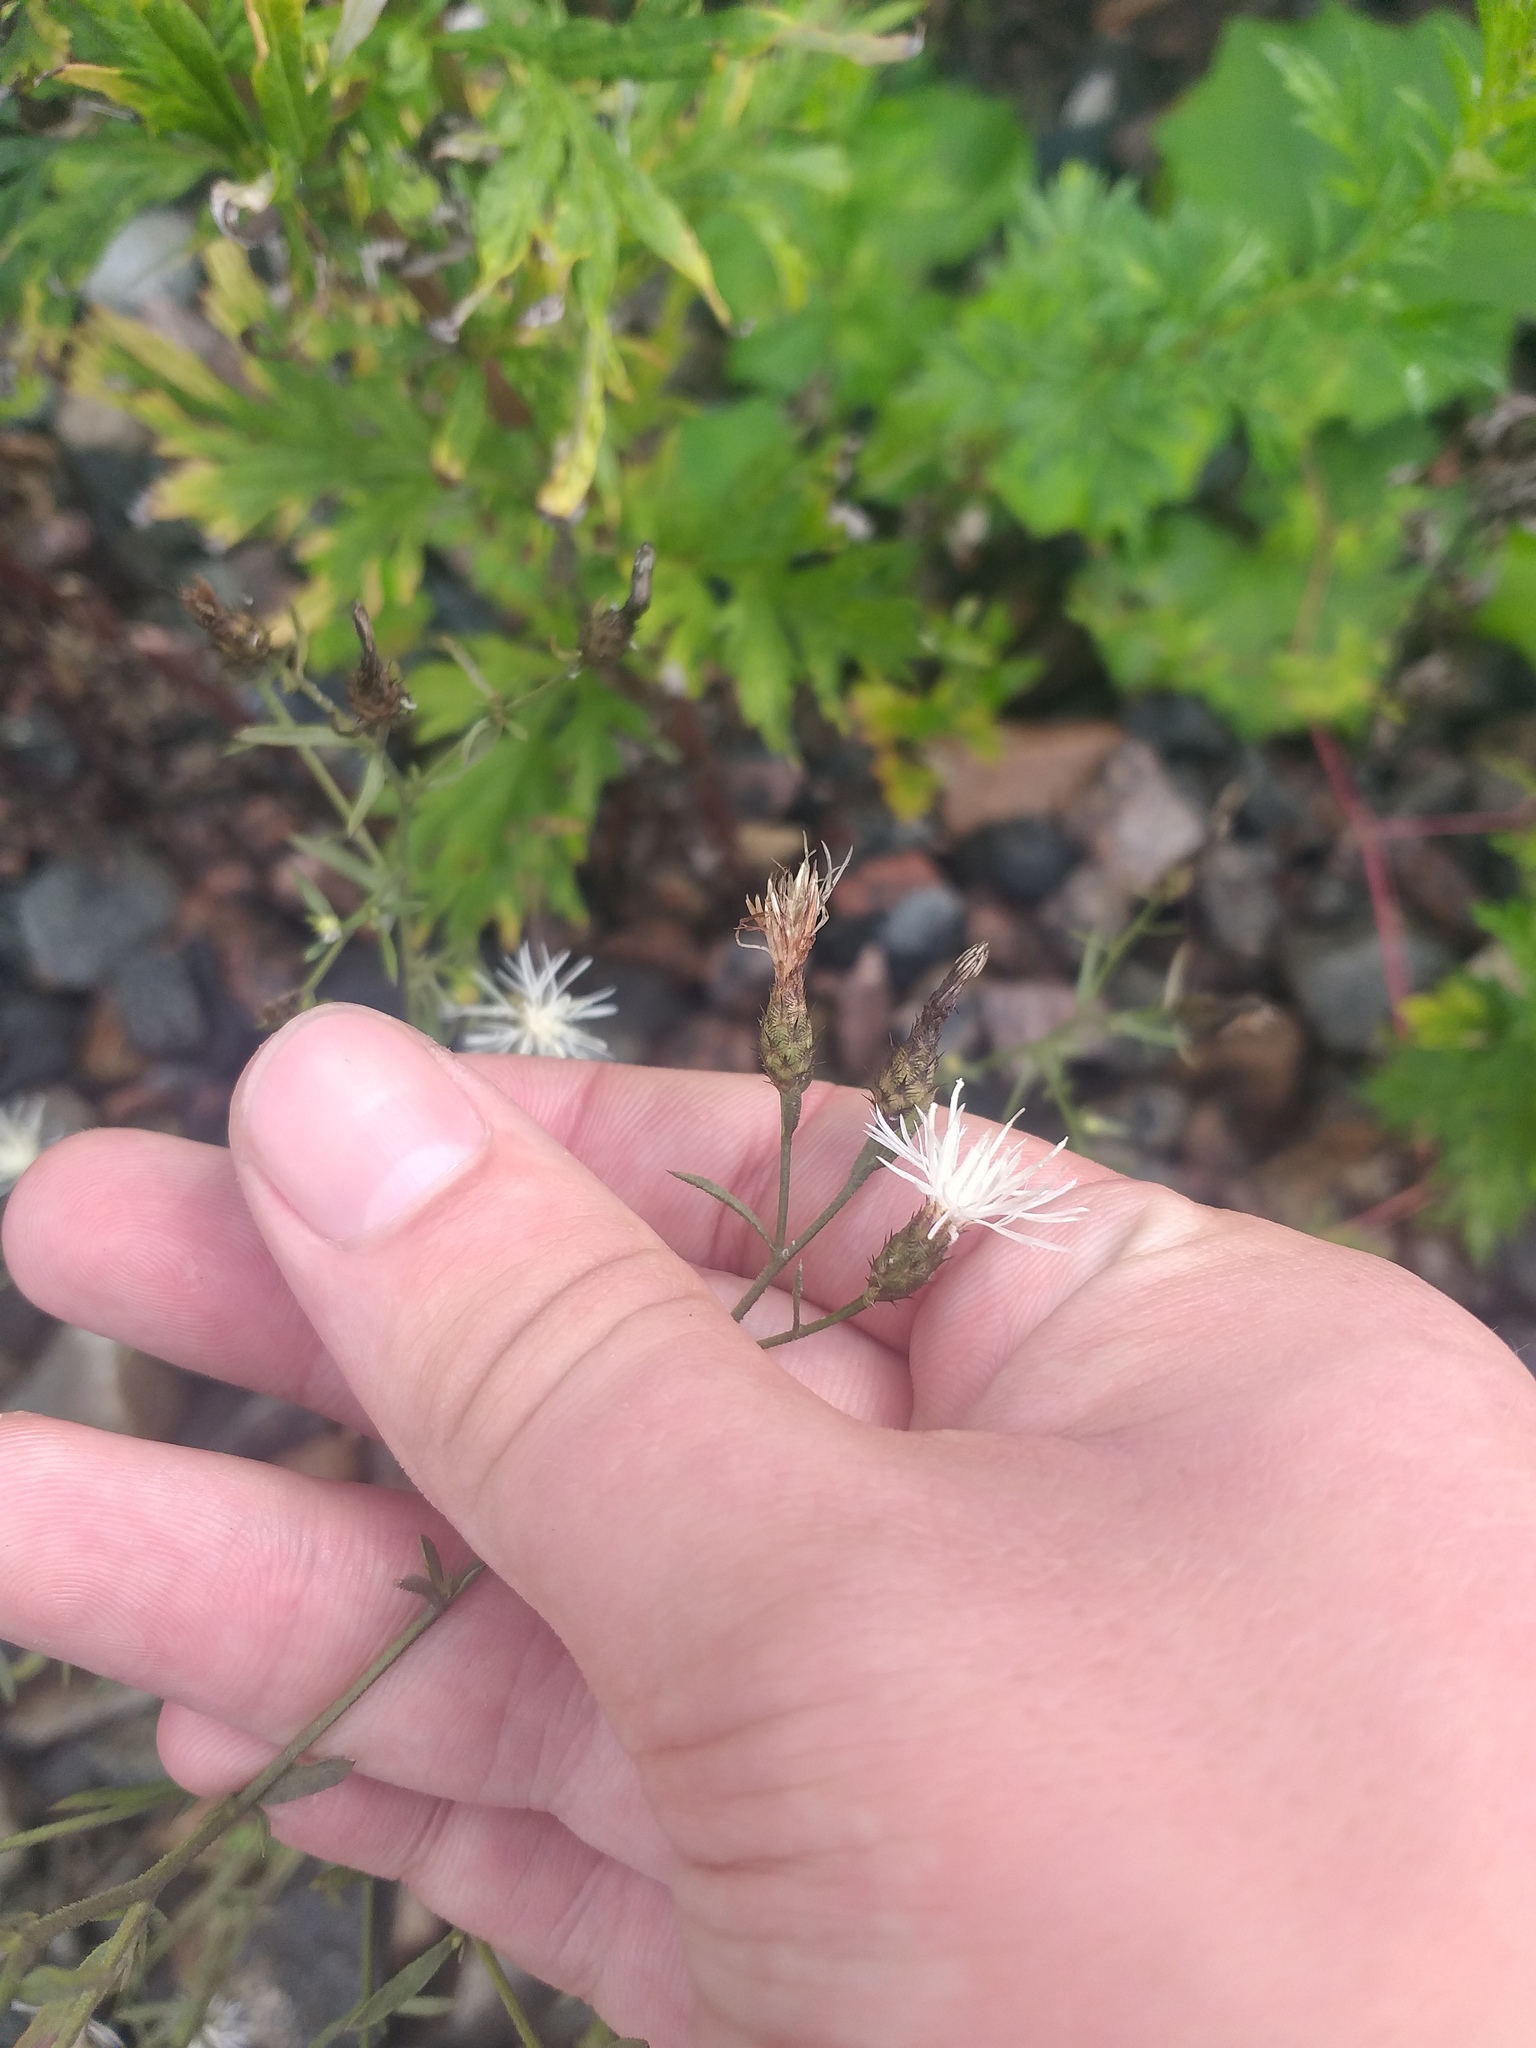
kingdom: Plantae
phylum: Tracheophyta
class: Magnoliopsida
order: Asterales
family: Asteraceae
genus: Centaurea
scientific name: Centaurea diffusa
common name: Diffuse knapweed
